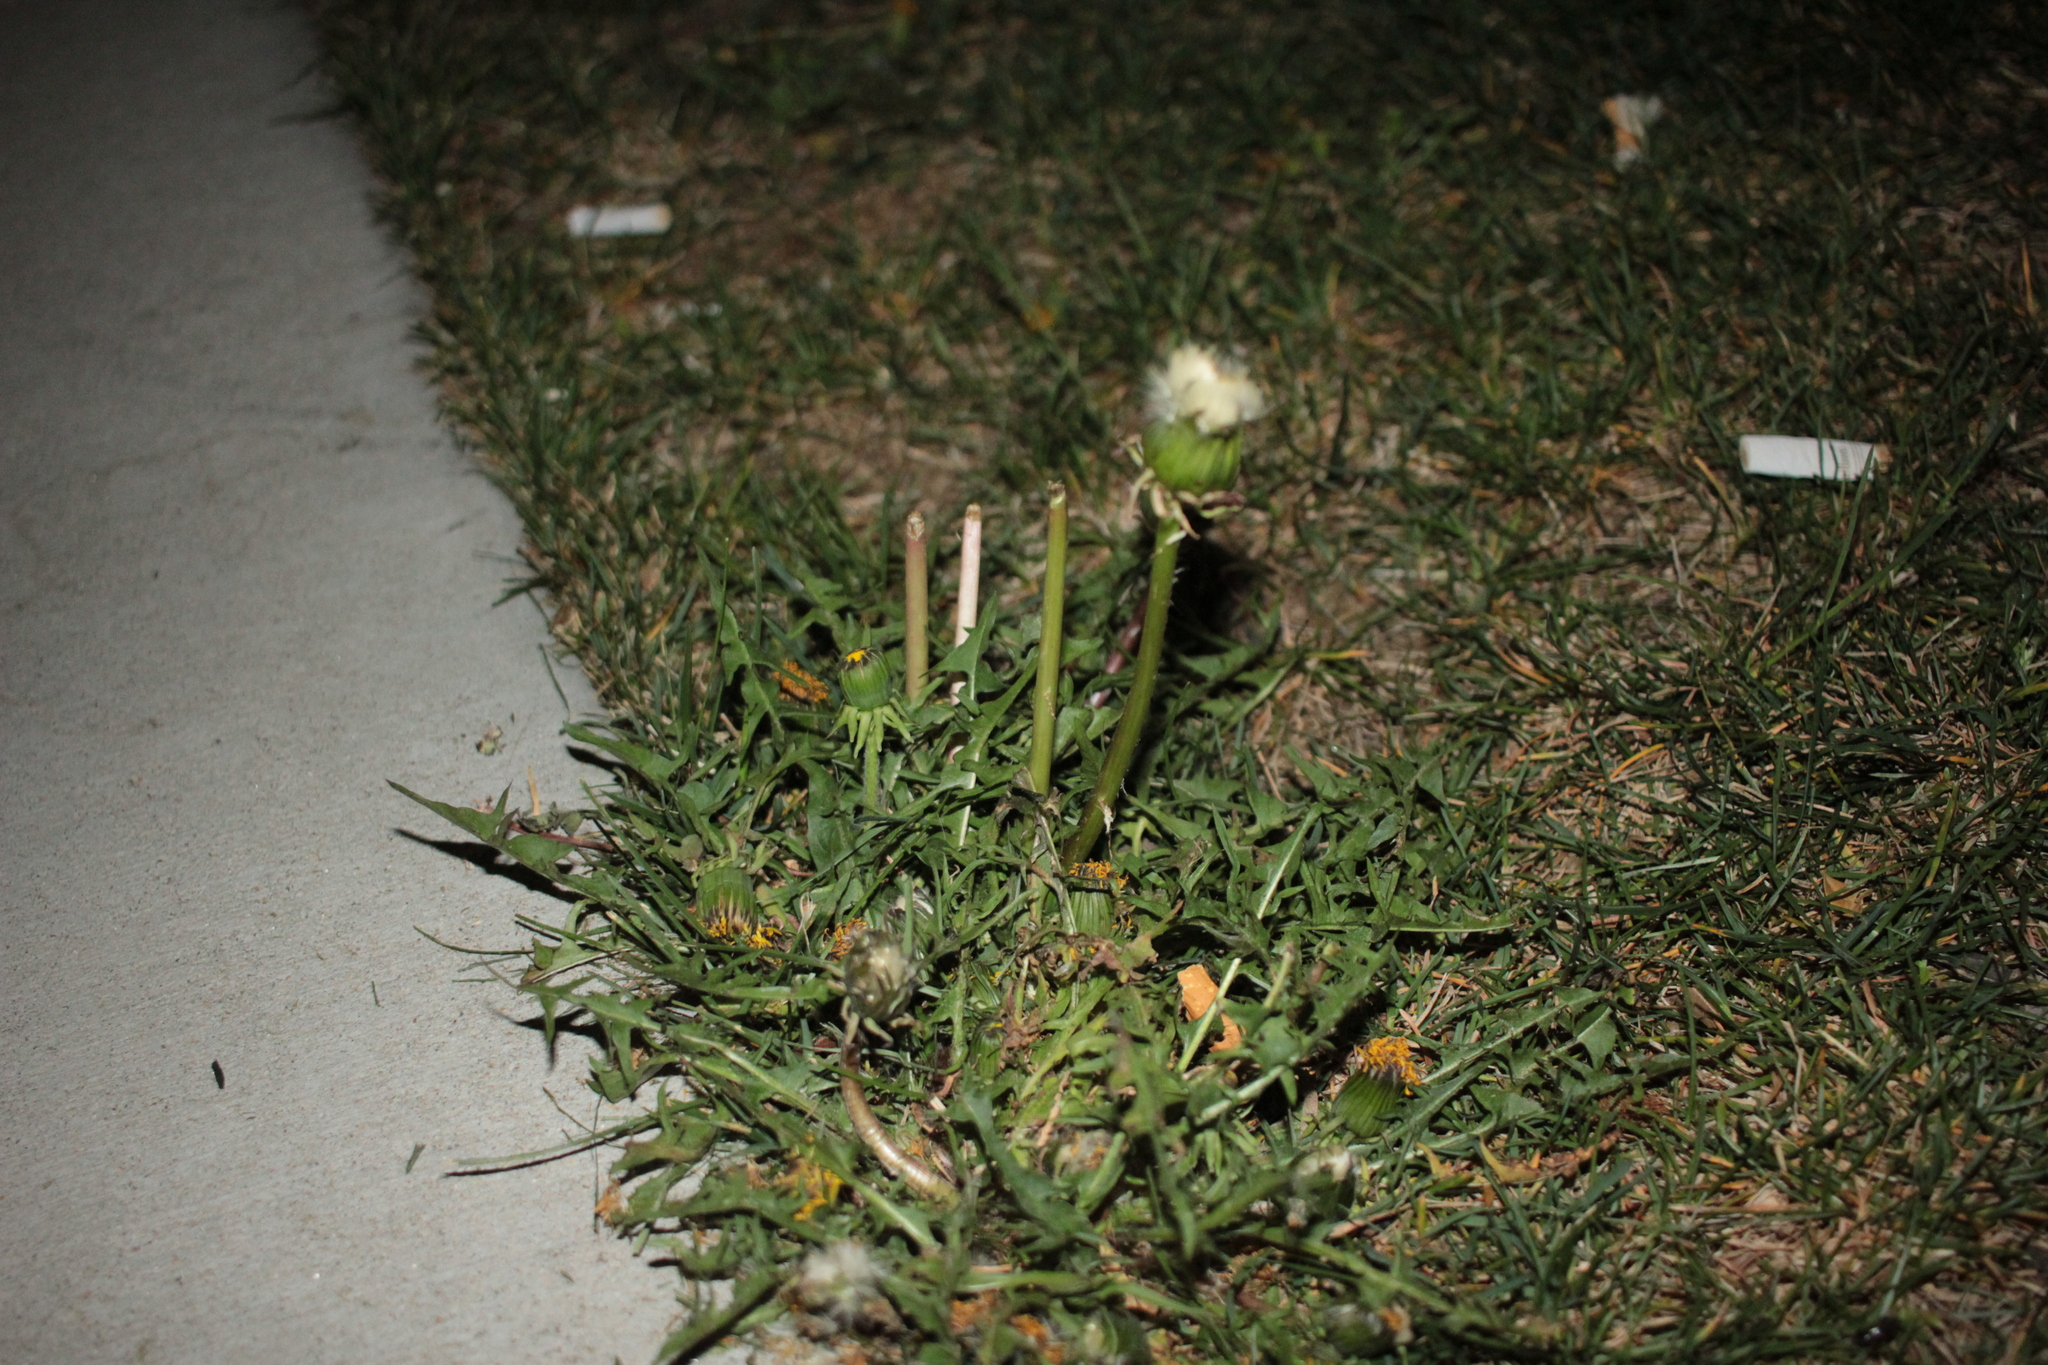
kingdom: Plantae
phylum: Tracheophyta
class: Magnoliopsida
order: Asterales
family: Asteraceae
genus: Taraxacum
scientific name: Taraxacum
